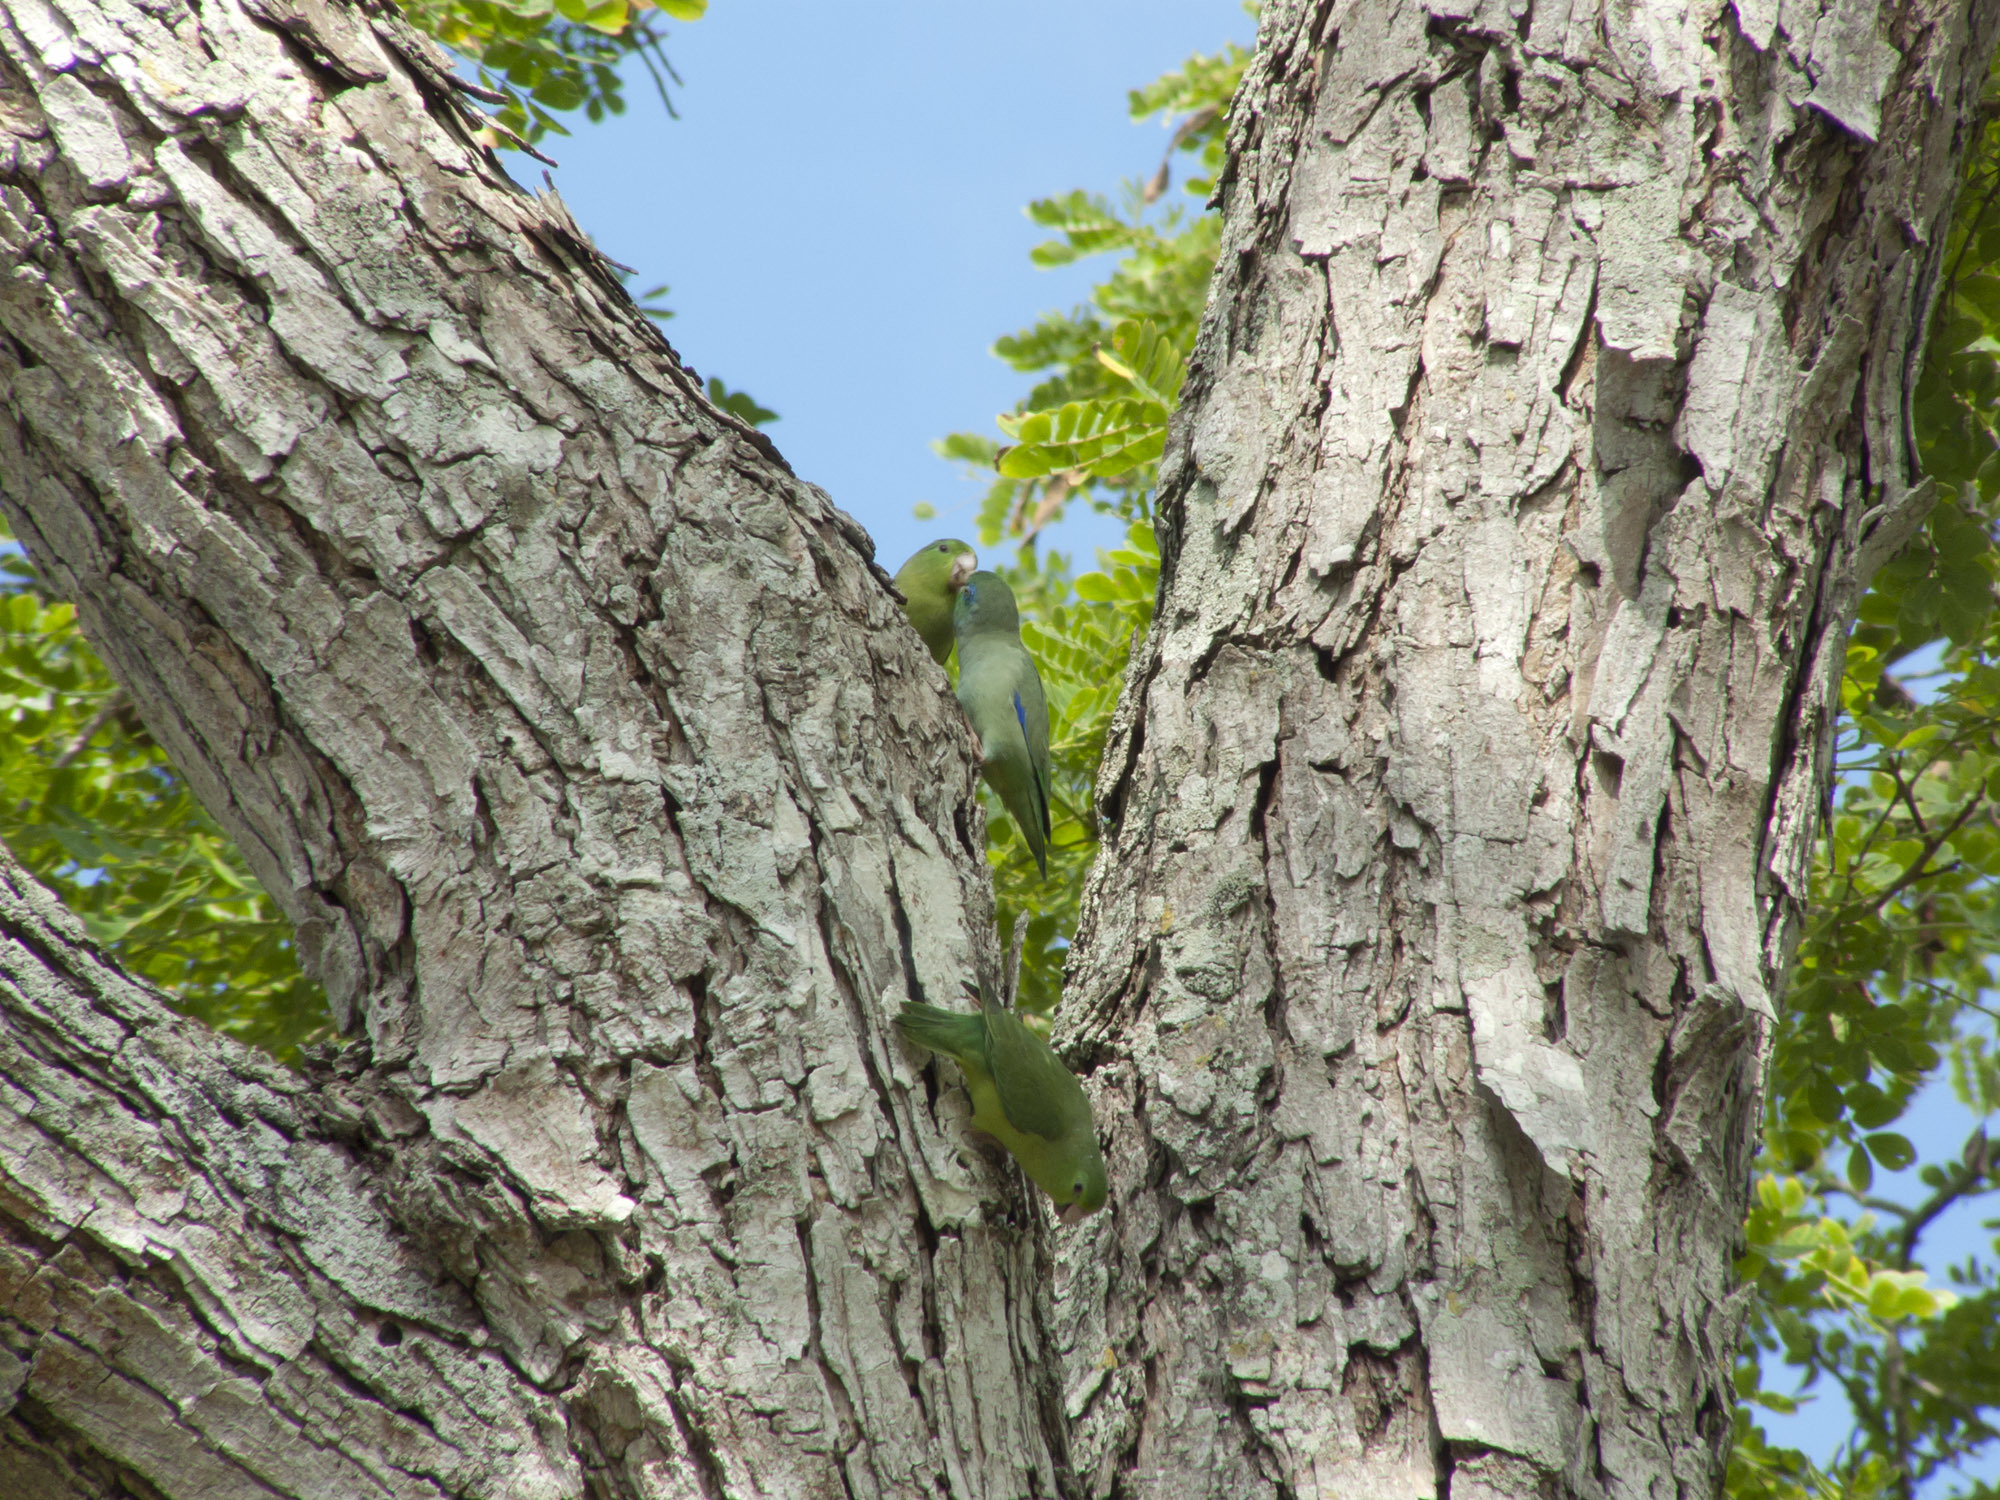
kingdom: Animalia
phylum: Chordata
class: Aves
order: Psittaciformes
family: Psittacidae
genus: Forpus
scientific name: Forpus conspicillatus
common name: Spectacled parrotlet
